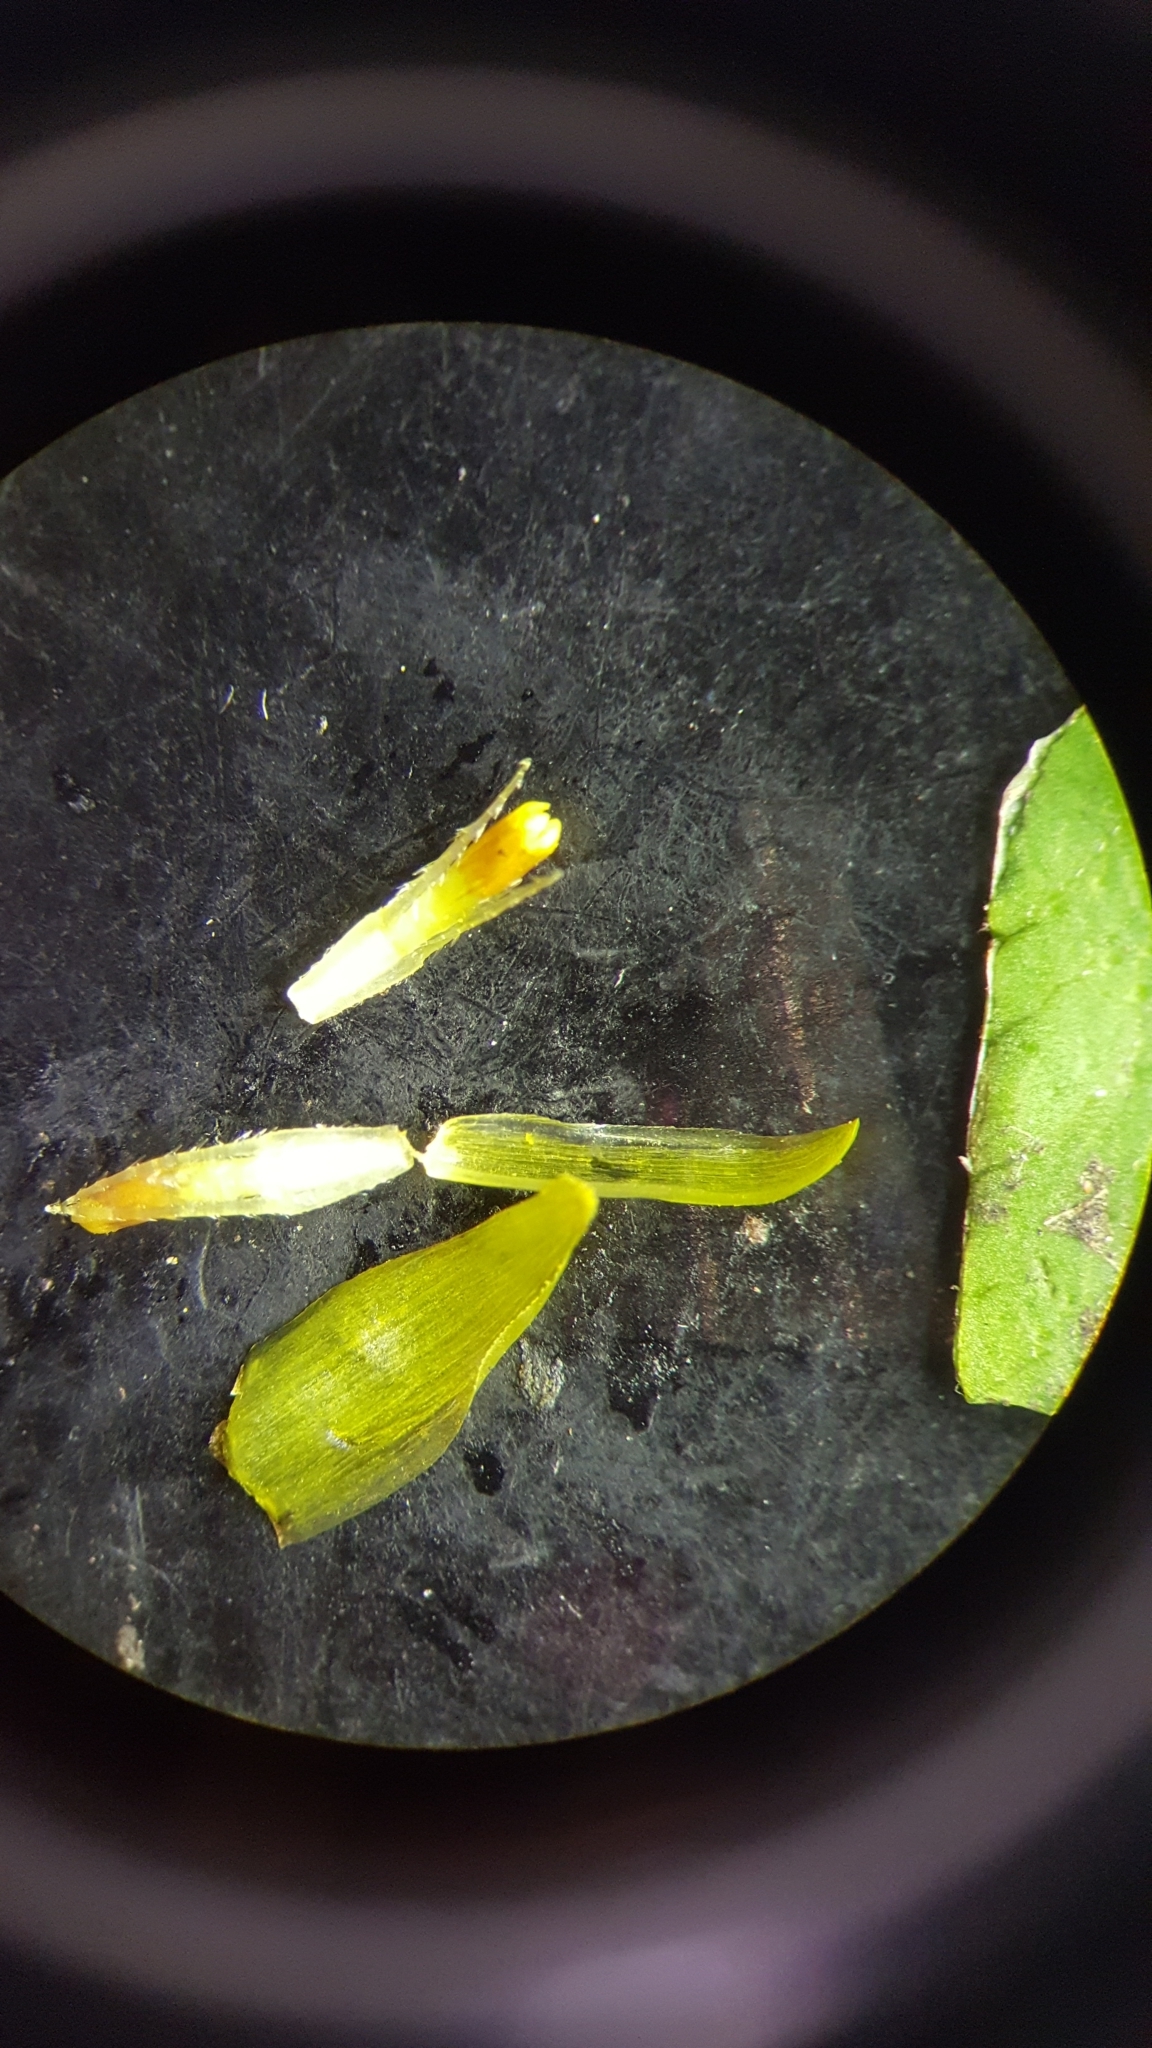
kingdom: Plantae
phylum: Tracheophyta
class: Magnoliopsida
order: Asterales
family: Asteraceae
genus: Bidens
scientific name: Bidens connata
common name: London bur-marigold
